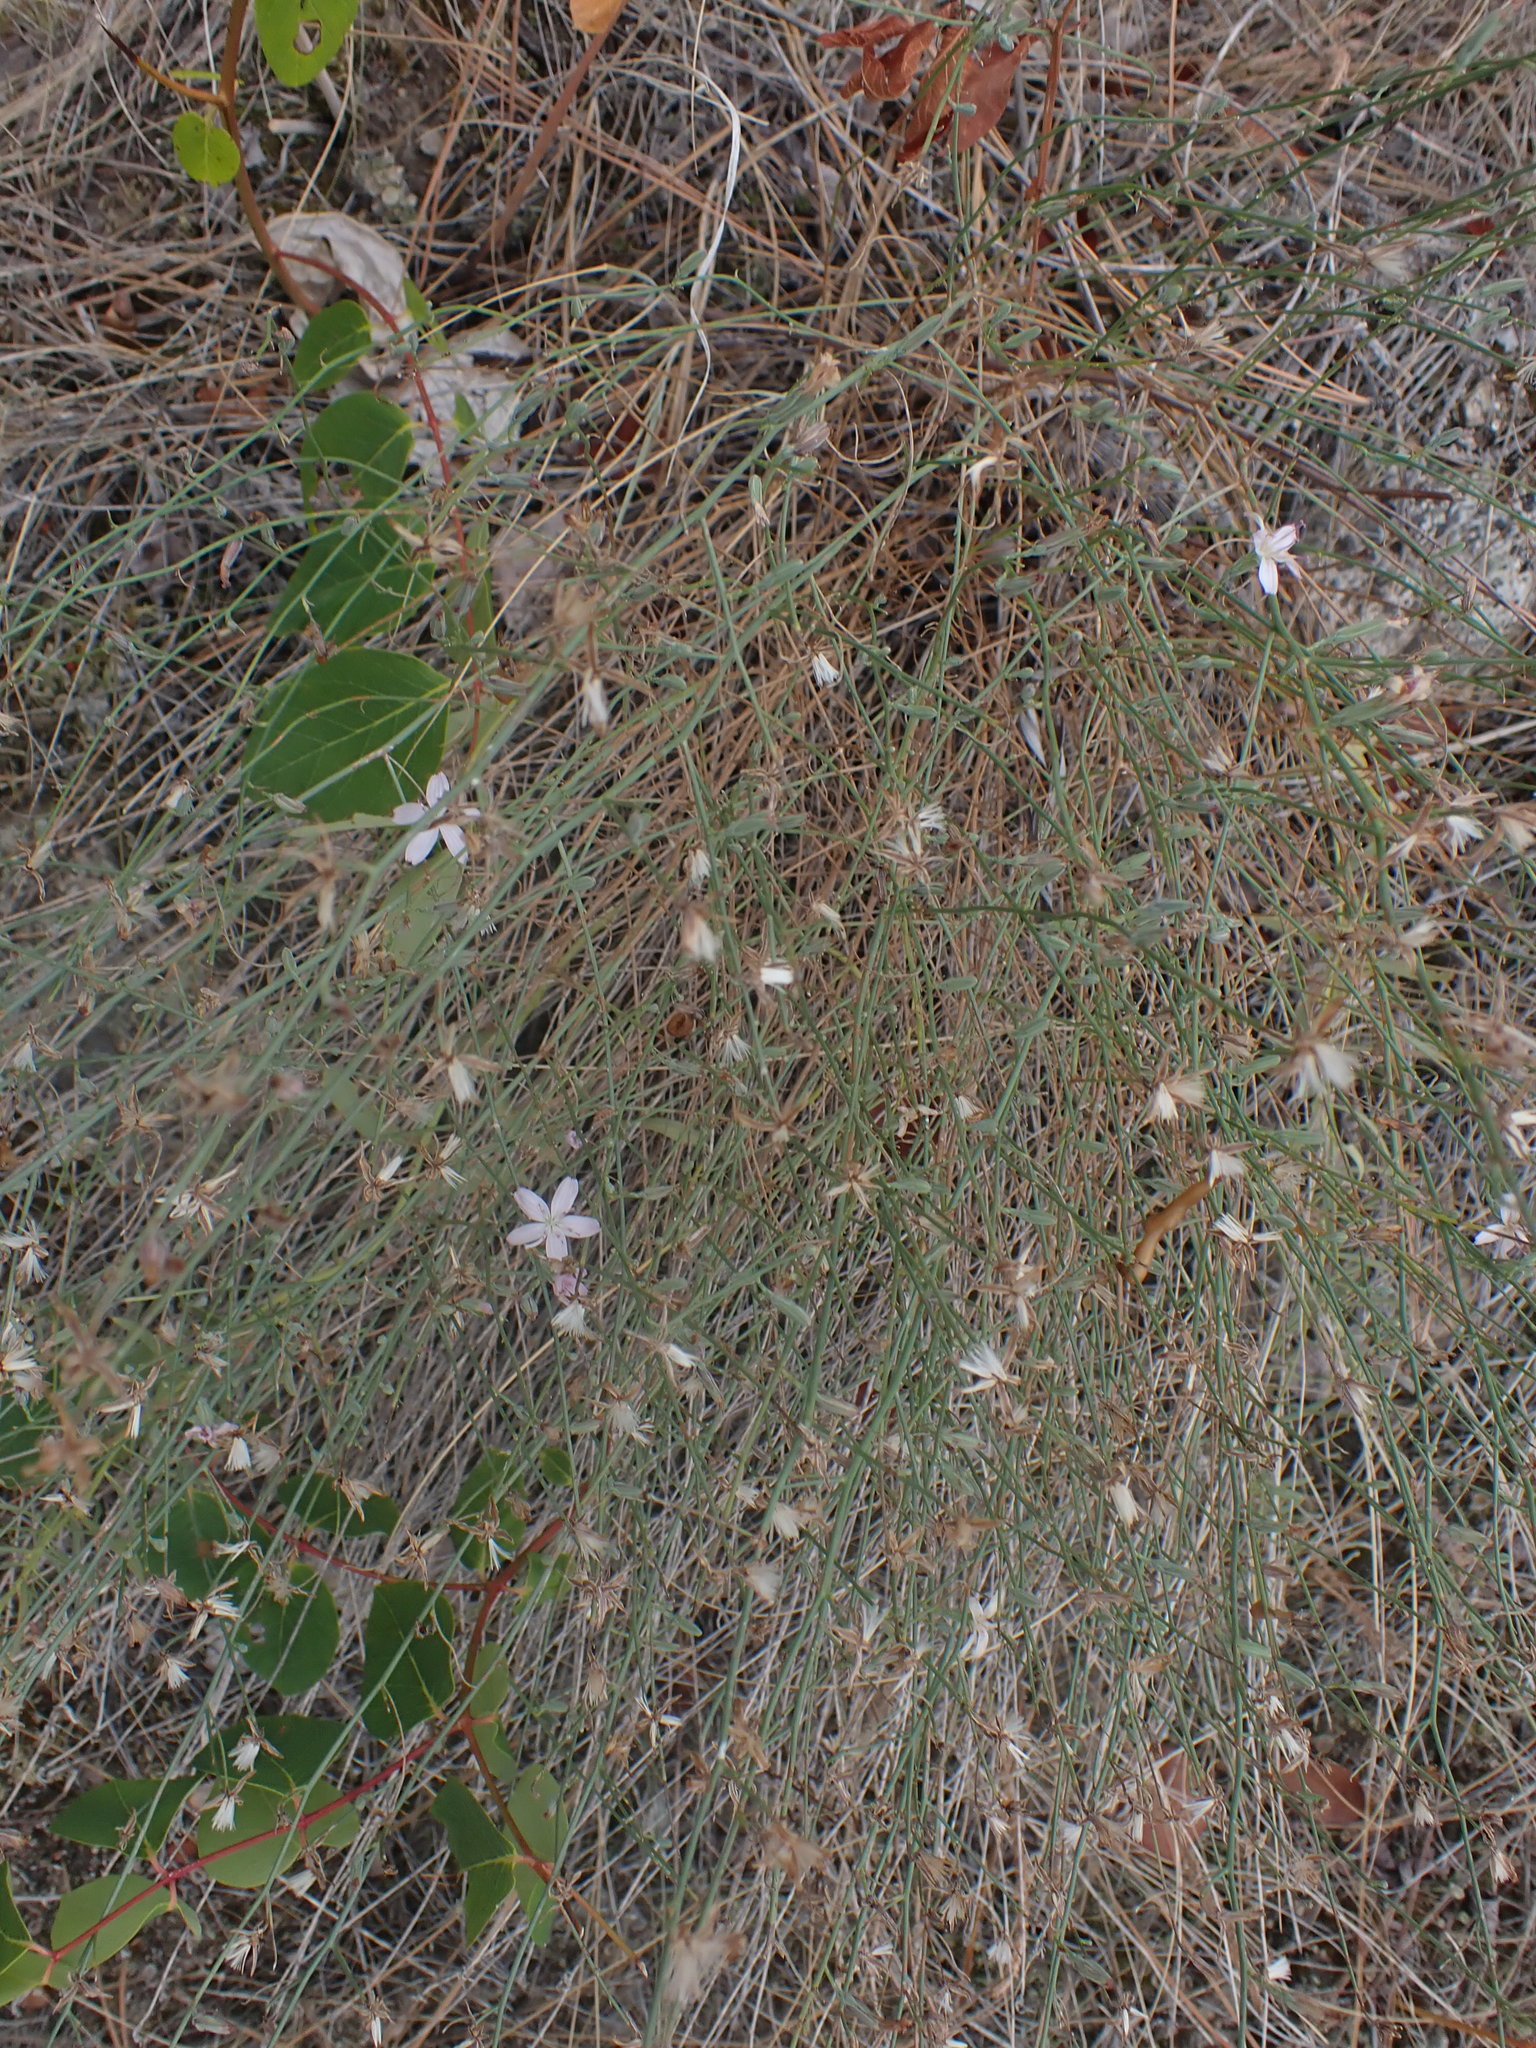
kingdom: Plantae
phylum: Tracheophyta
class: Magnoliopsida
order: Asterales
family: Asteraceae
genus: Stephanomeria
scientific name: Stephanomeria tenuifolia
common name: Slender wirelettuce
